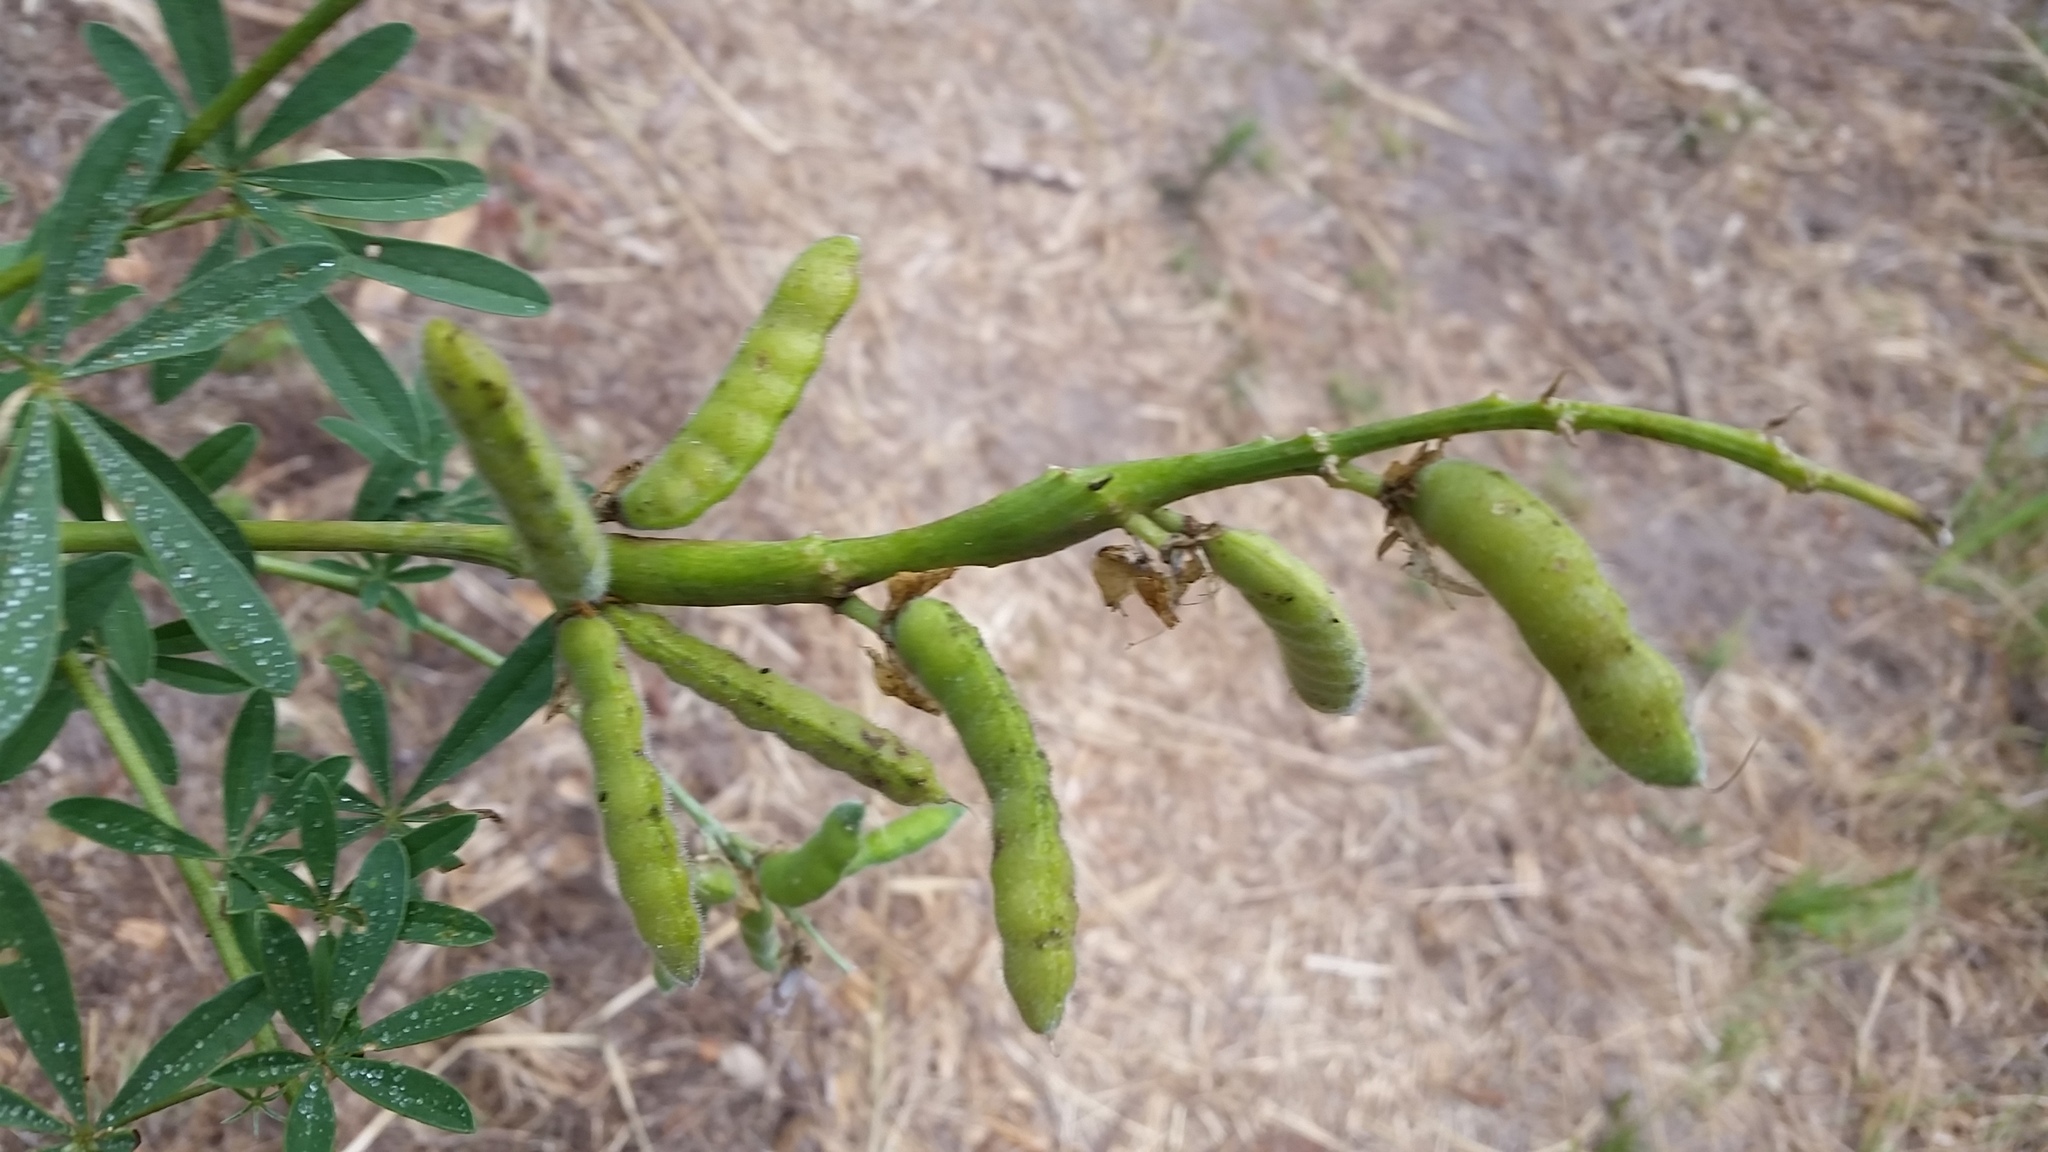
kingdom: Plantae
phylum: Tracheophyta
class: Magnoliopsida
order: Fabales
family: Fabaceae
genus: Lupinus
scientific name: Lupinus arboreus
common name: Yellow bush lupine
